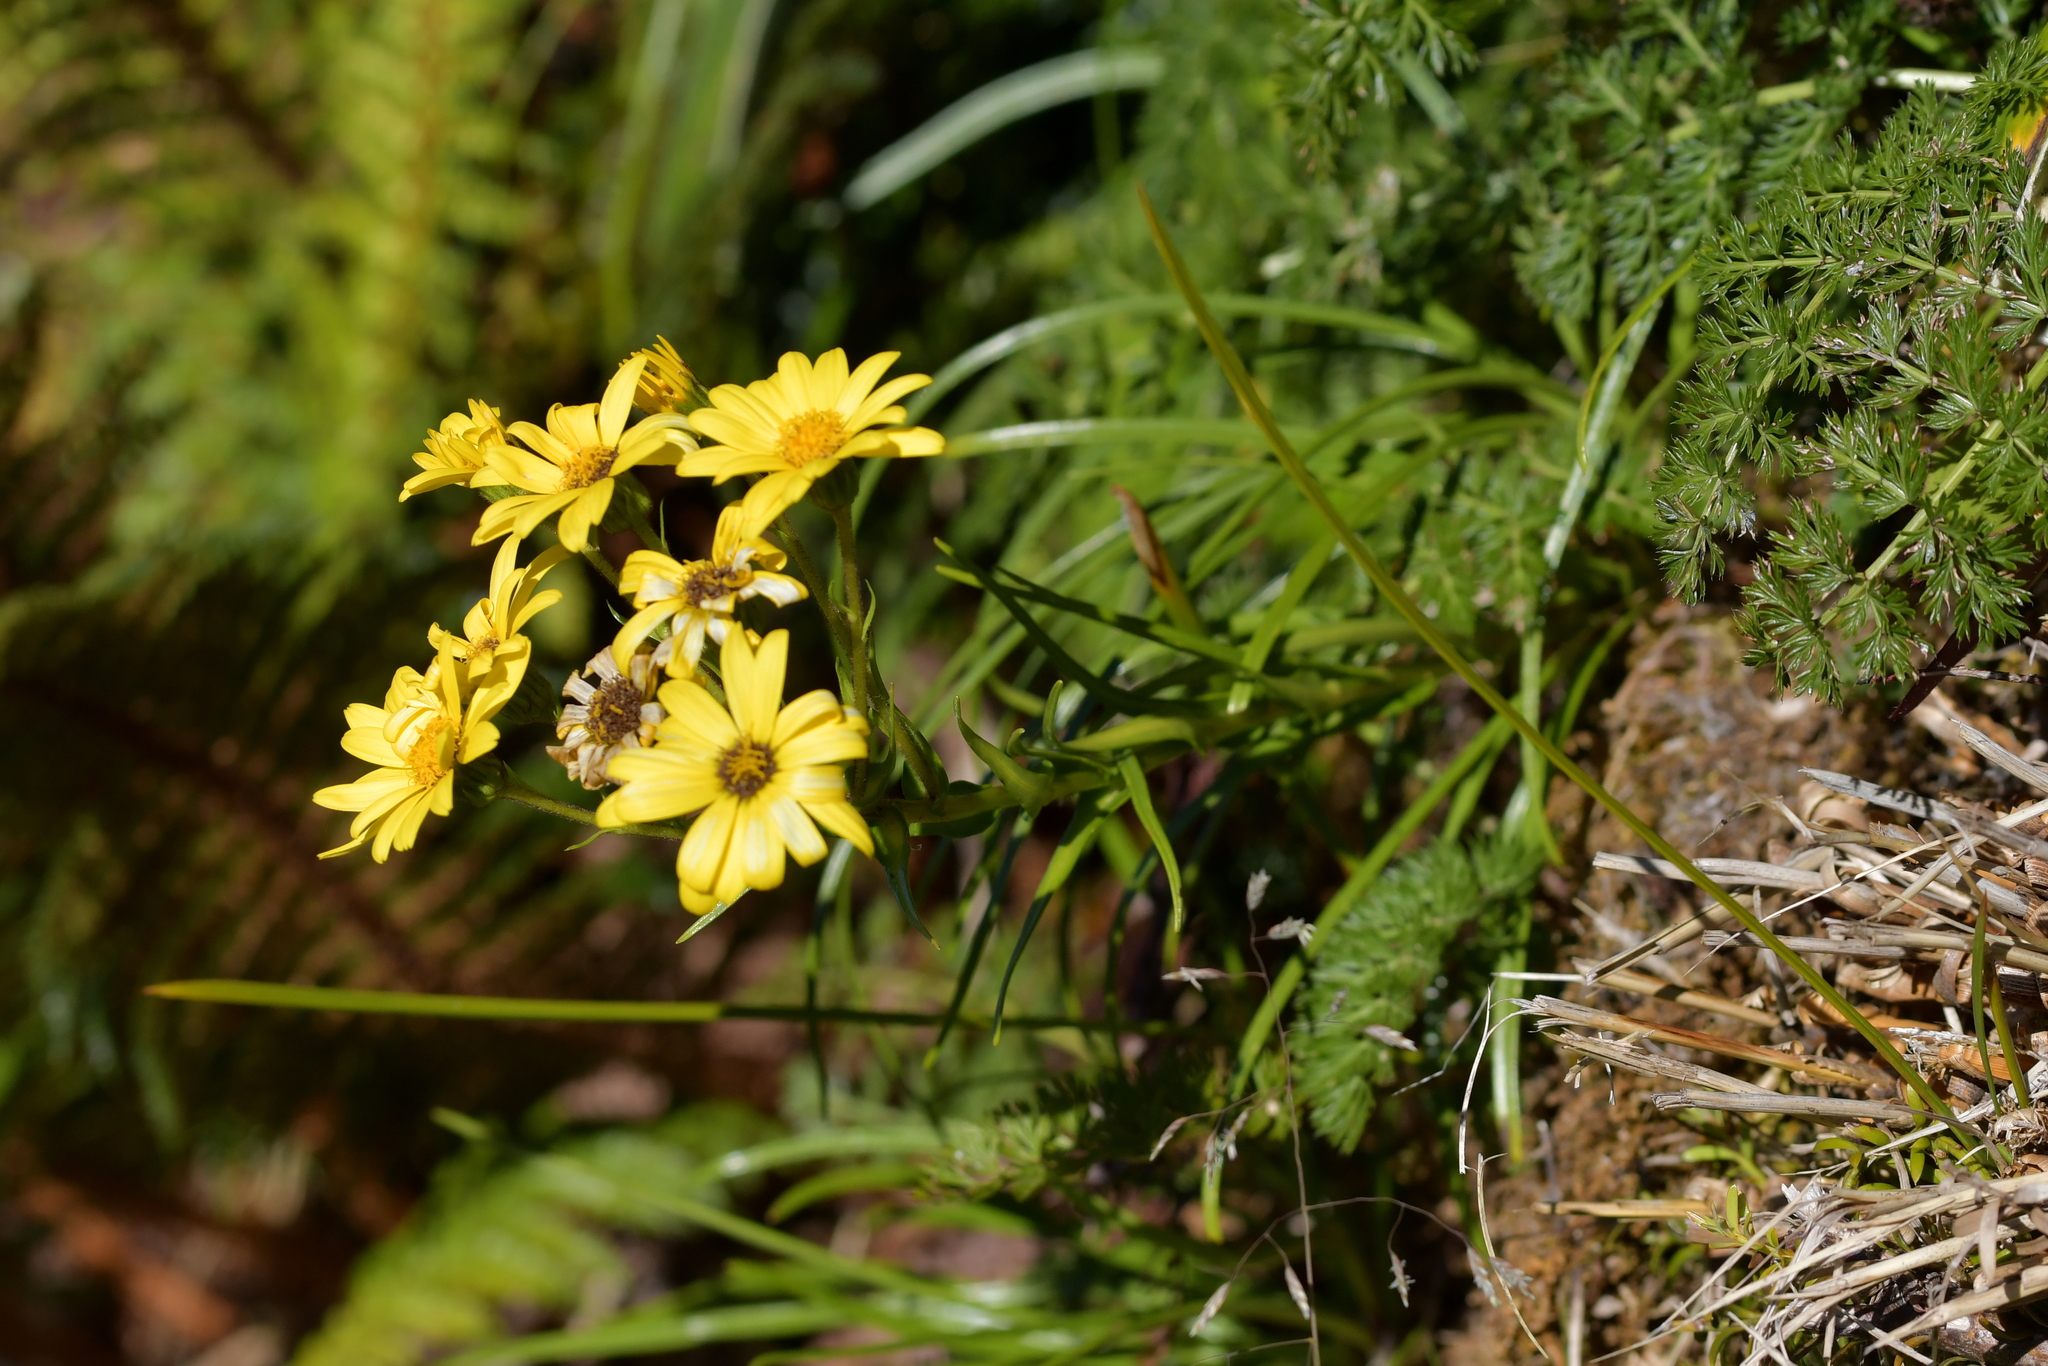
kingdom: Plantae
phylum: Tracheophyta
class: Magnoliopsida
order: Asterales
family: Asteraceae
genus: Dolichoglottis
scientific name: Dolichoglottis lyallii
